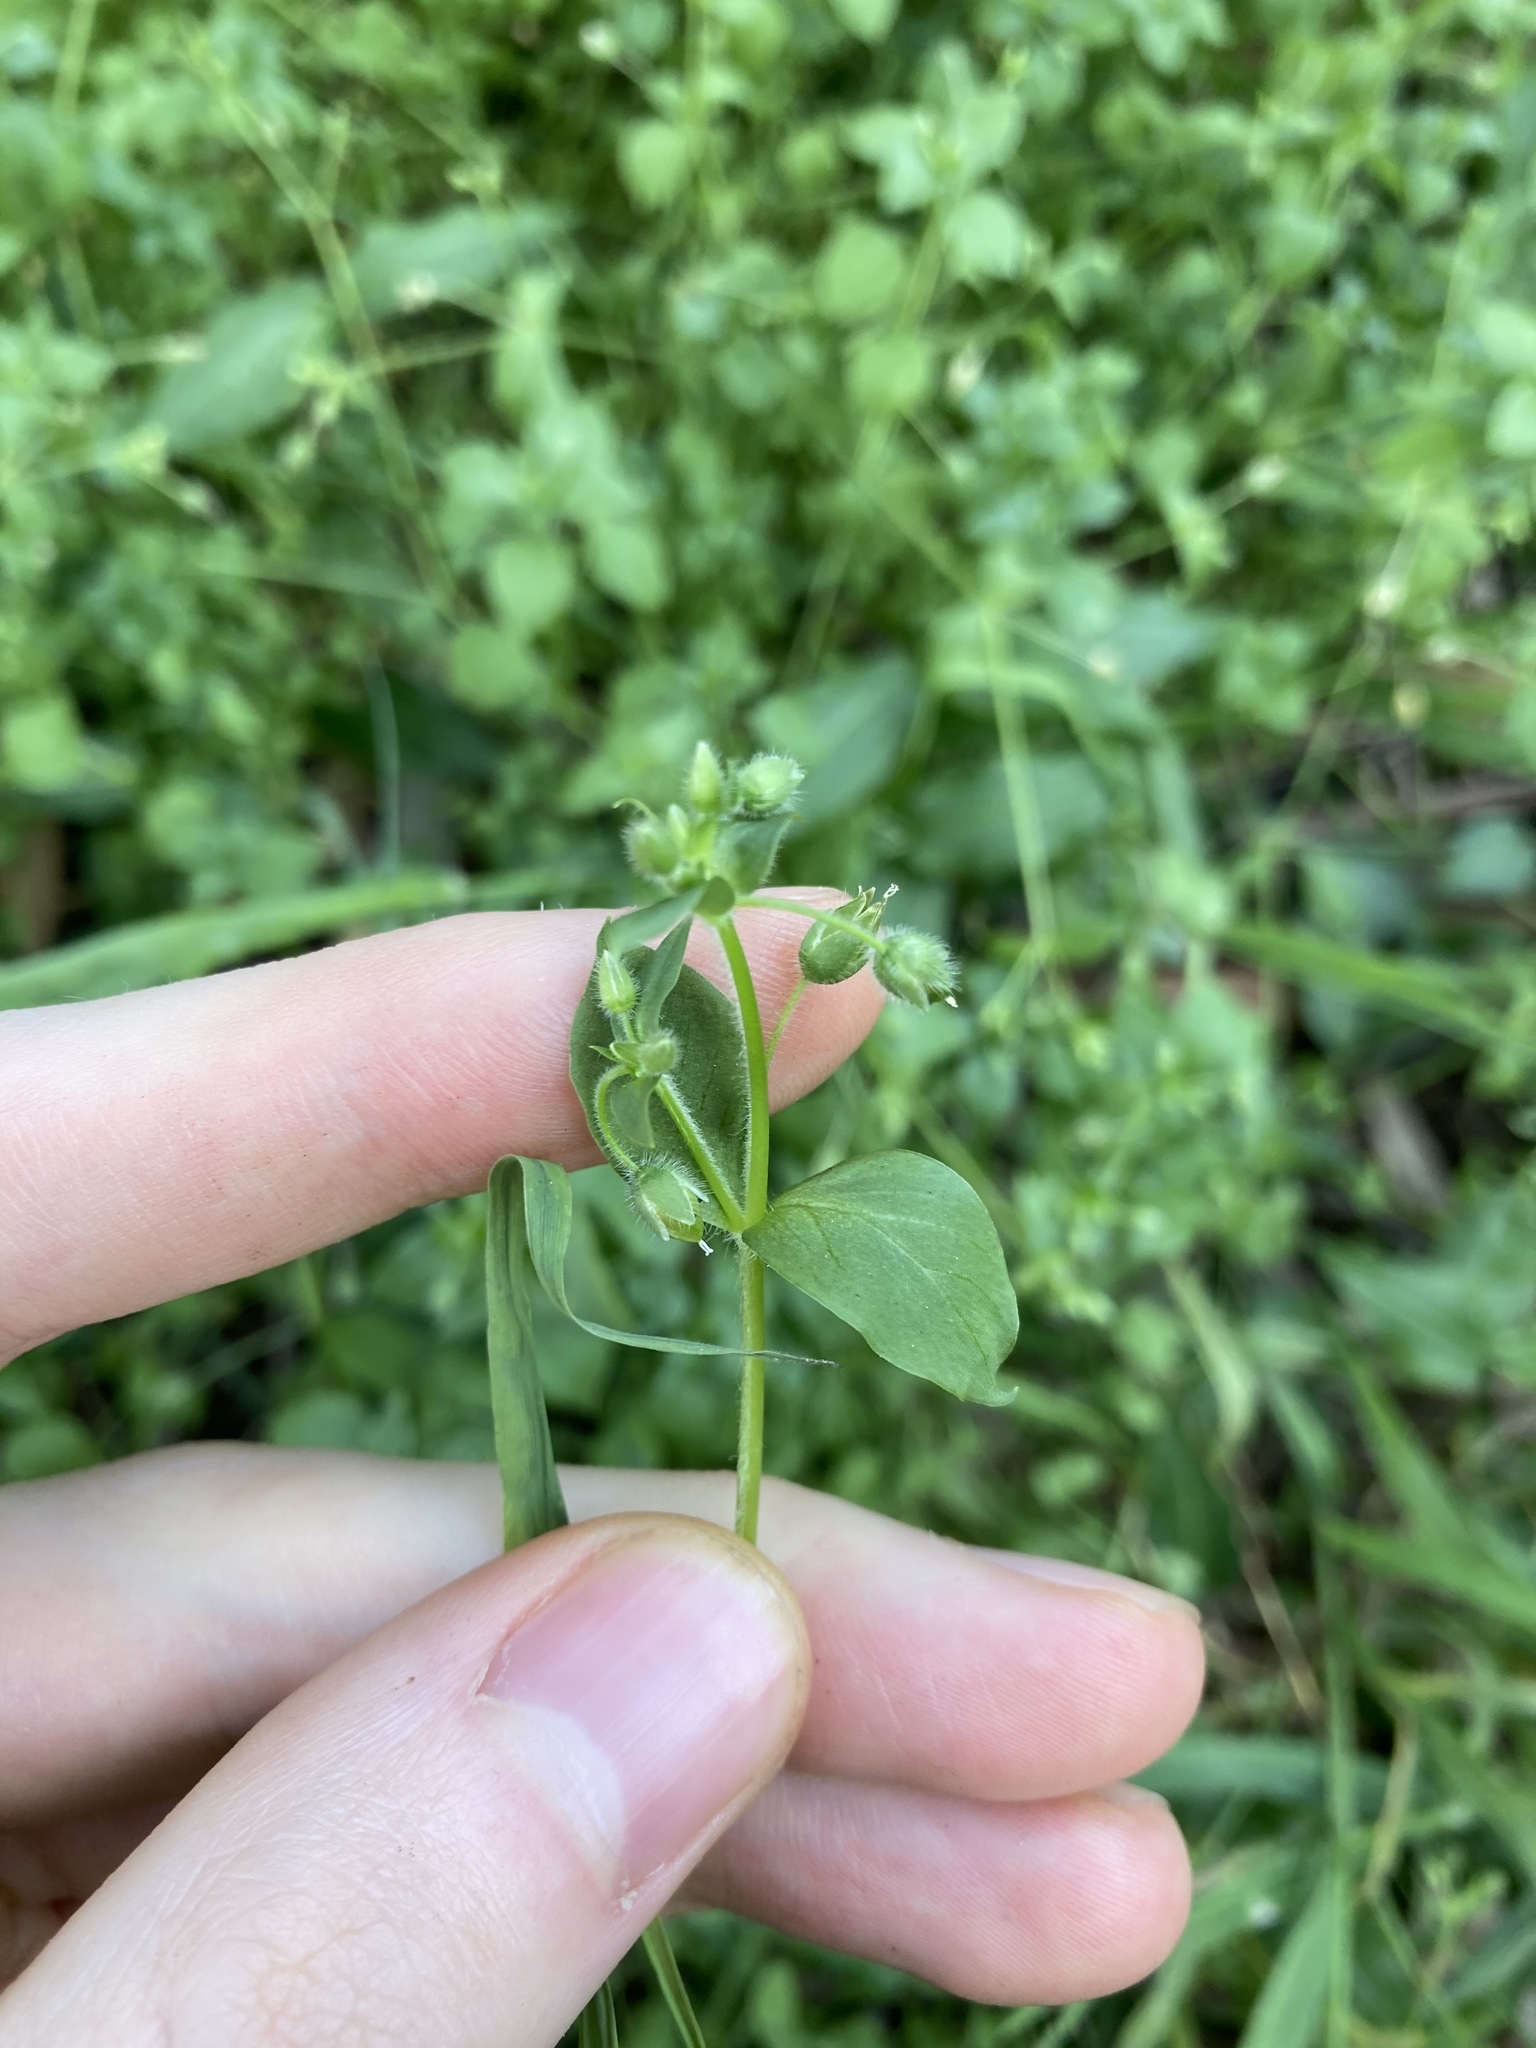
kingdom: Plantae
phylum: Tracheophyta
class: Magnoliopsida
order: Caryophyllales
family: Caryophyllaceae
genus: Stellaria
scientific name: Stellaria media
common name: Common chickweed
